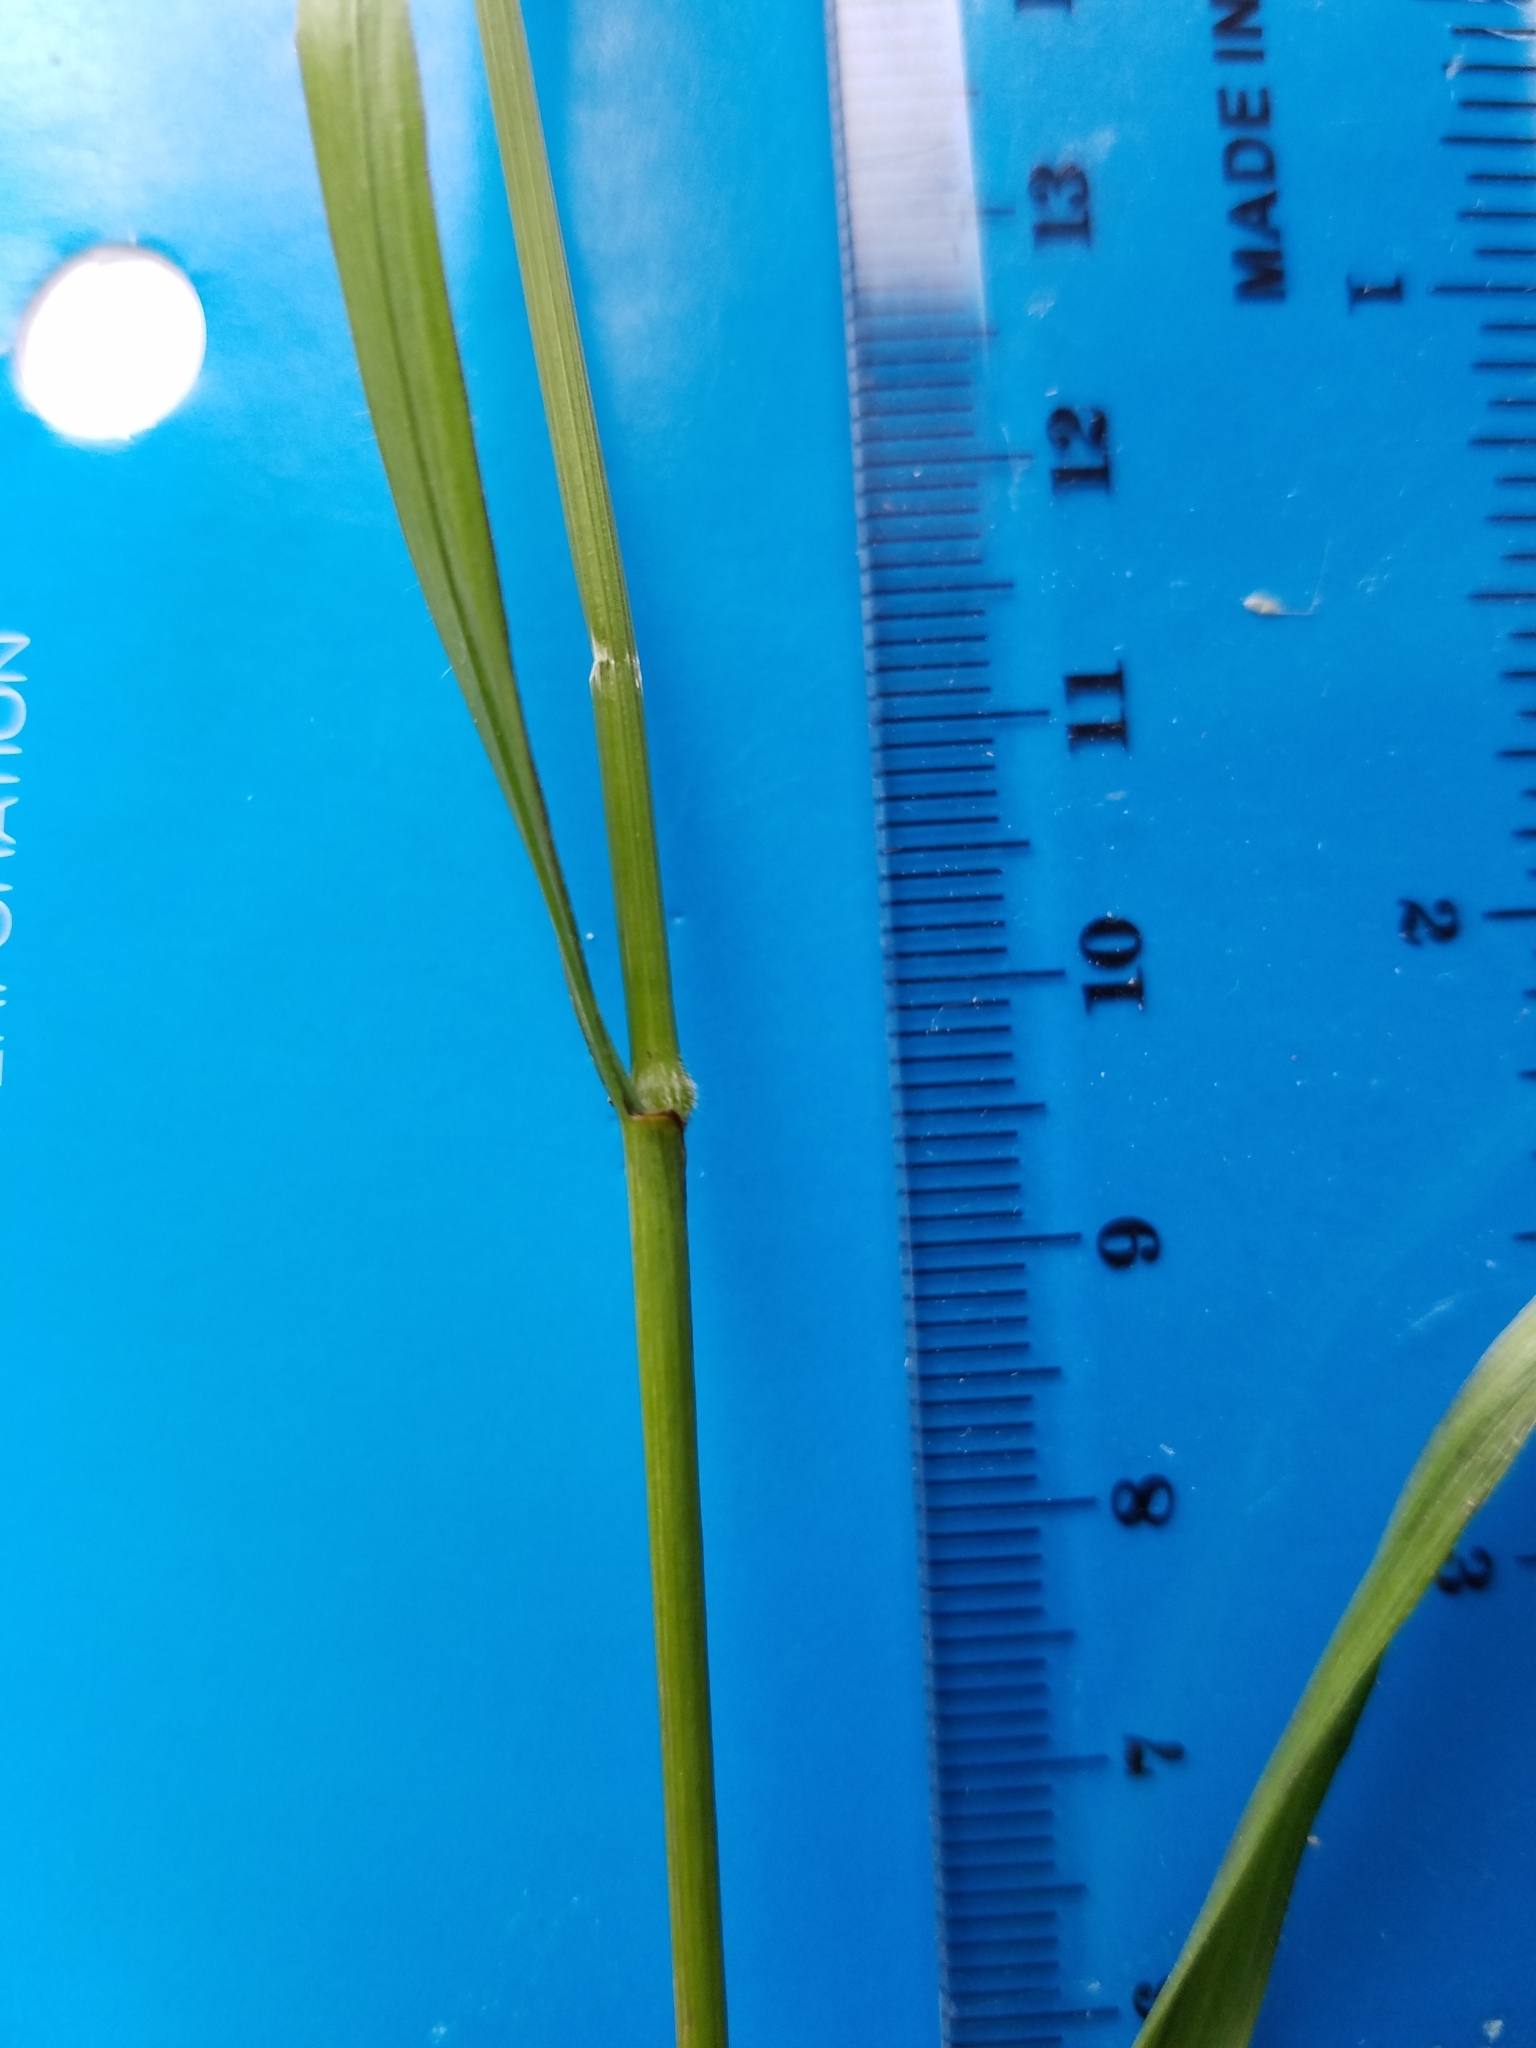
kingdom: Plantae
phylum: Tracheophyta
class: Liliopsida
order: Poales
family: Poaceae
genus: Bromus
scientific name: Bromus laevipes
